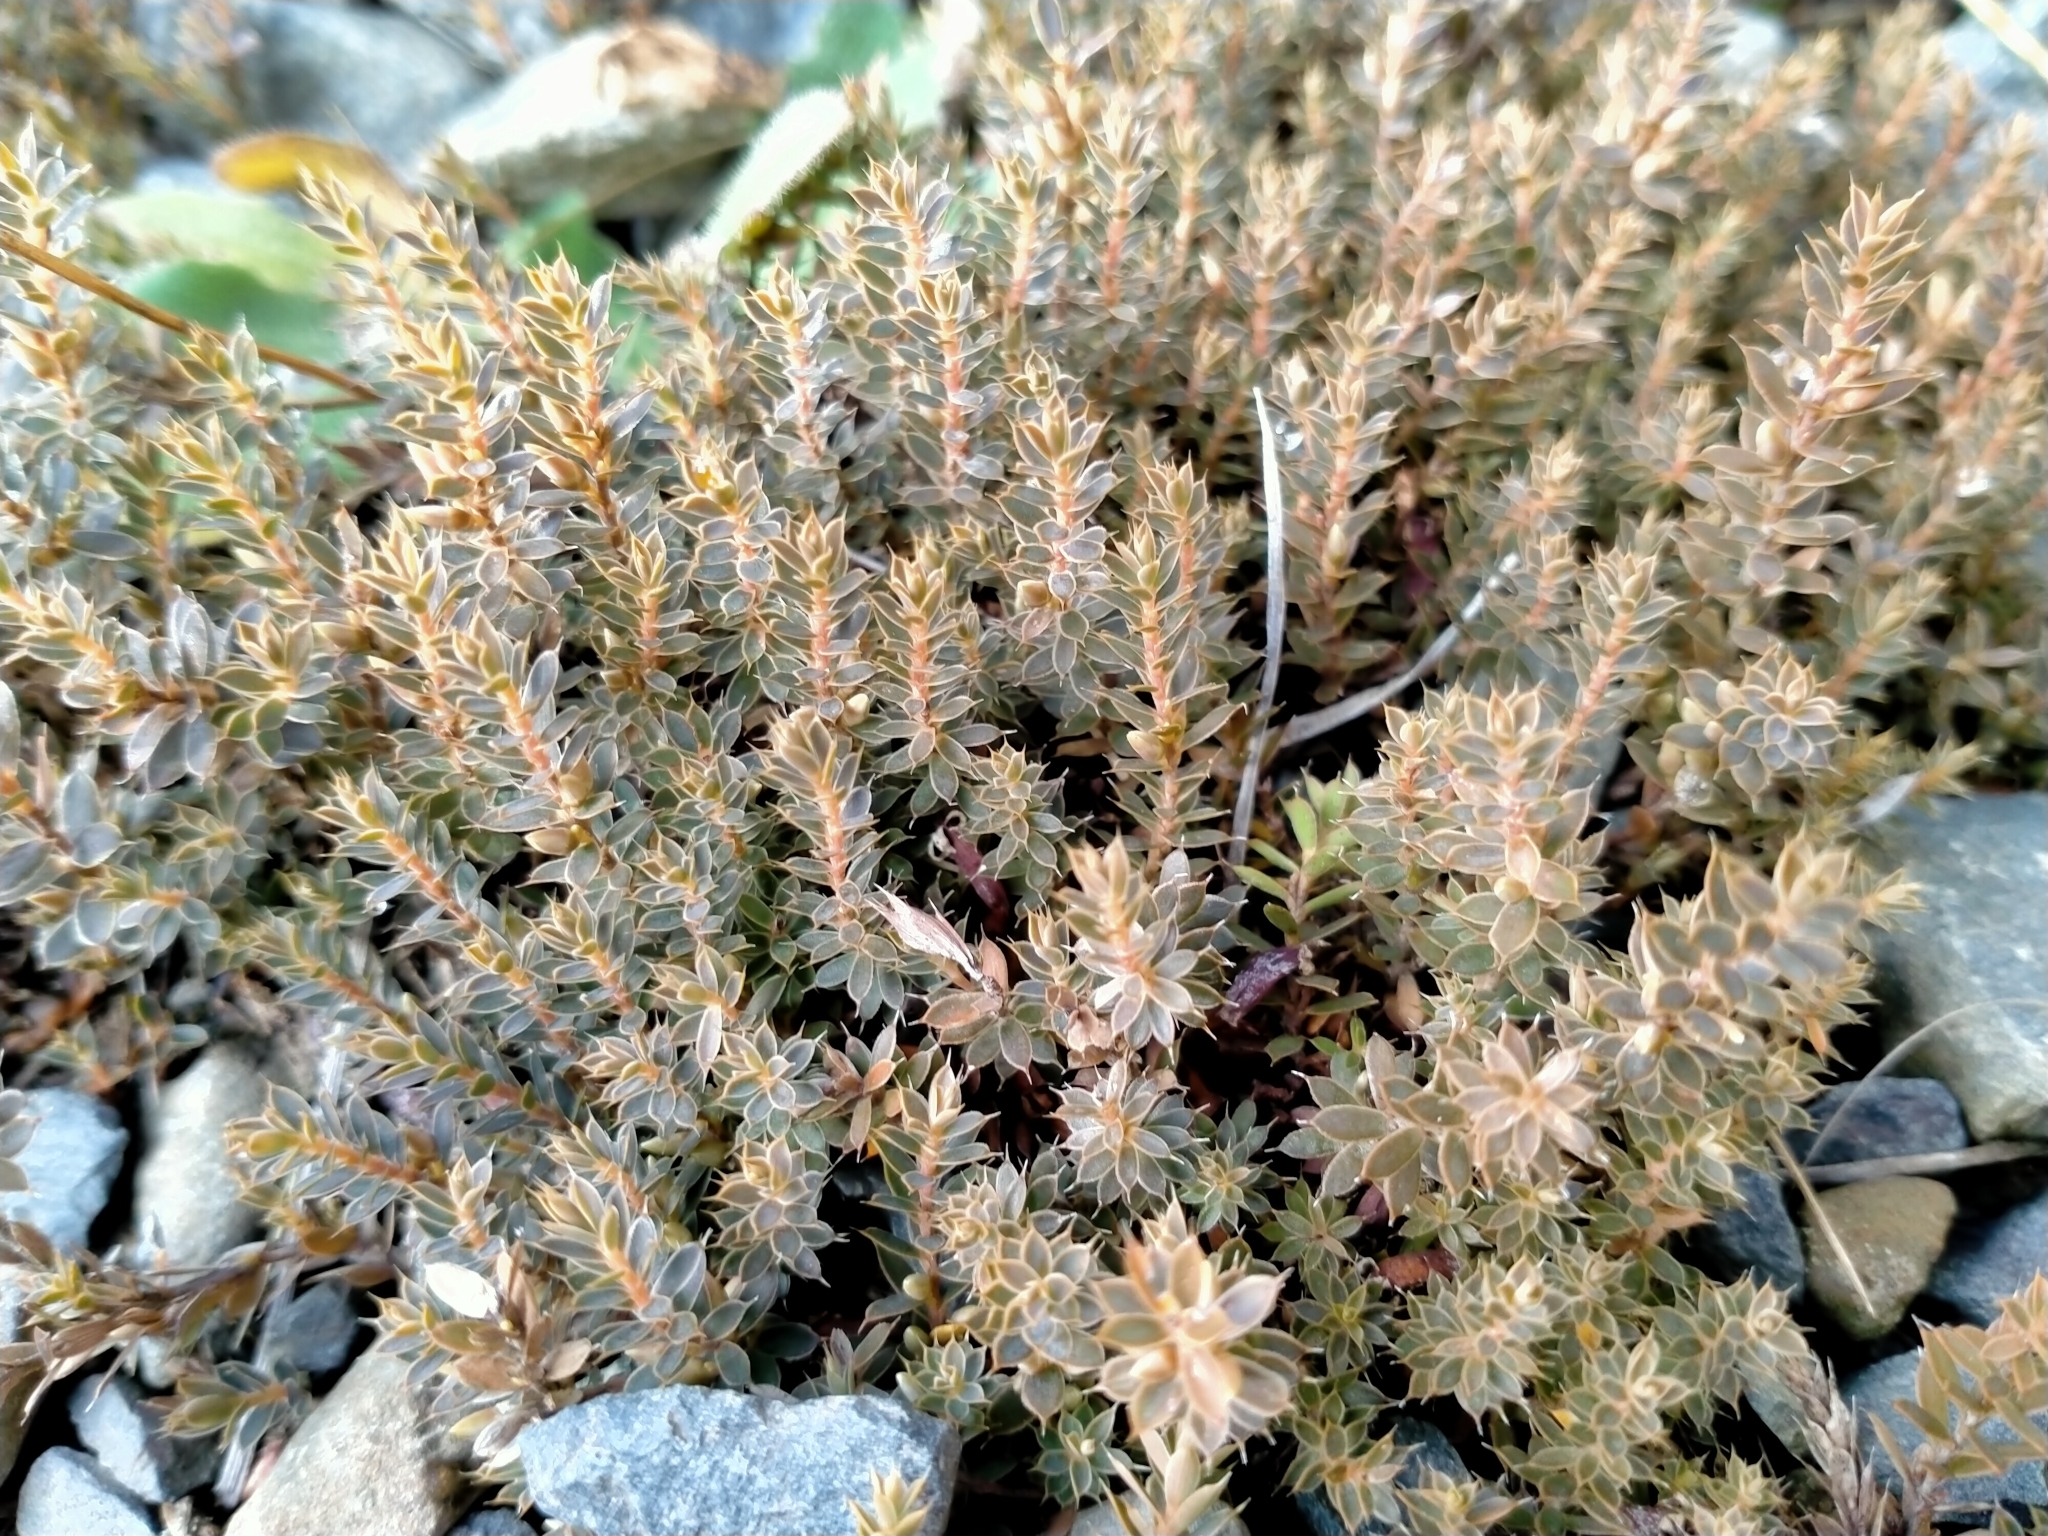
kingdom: Plantae
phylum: Tracheophyta
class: Magnoliopsida
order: Ericales
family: Ericaceae
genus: Styphelia
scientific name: Styphelia nesophila
